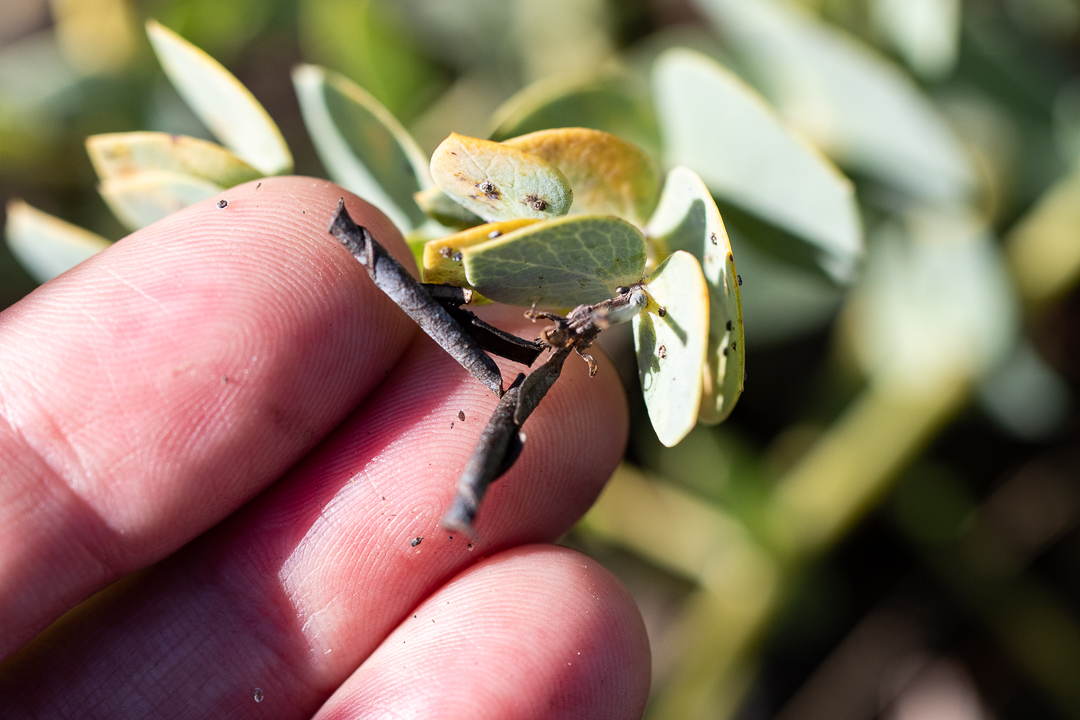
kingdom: Plantae
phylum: Tracheophyta
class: Magnoliopsida
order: Fabales
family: Fabaceae
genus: Rafnia
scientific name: Rafnia acuminata
